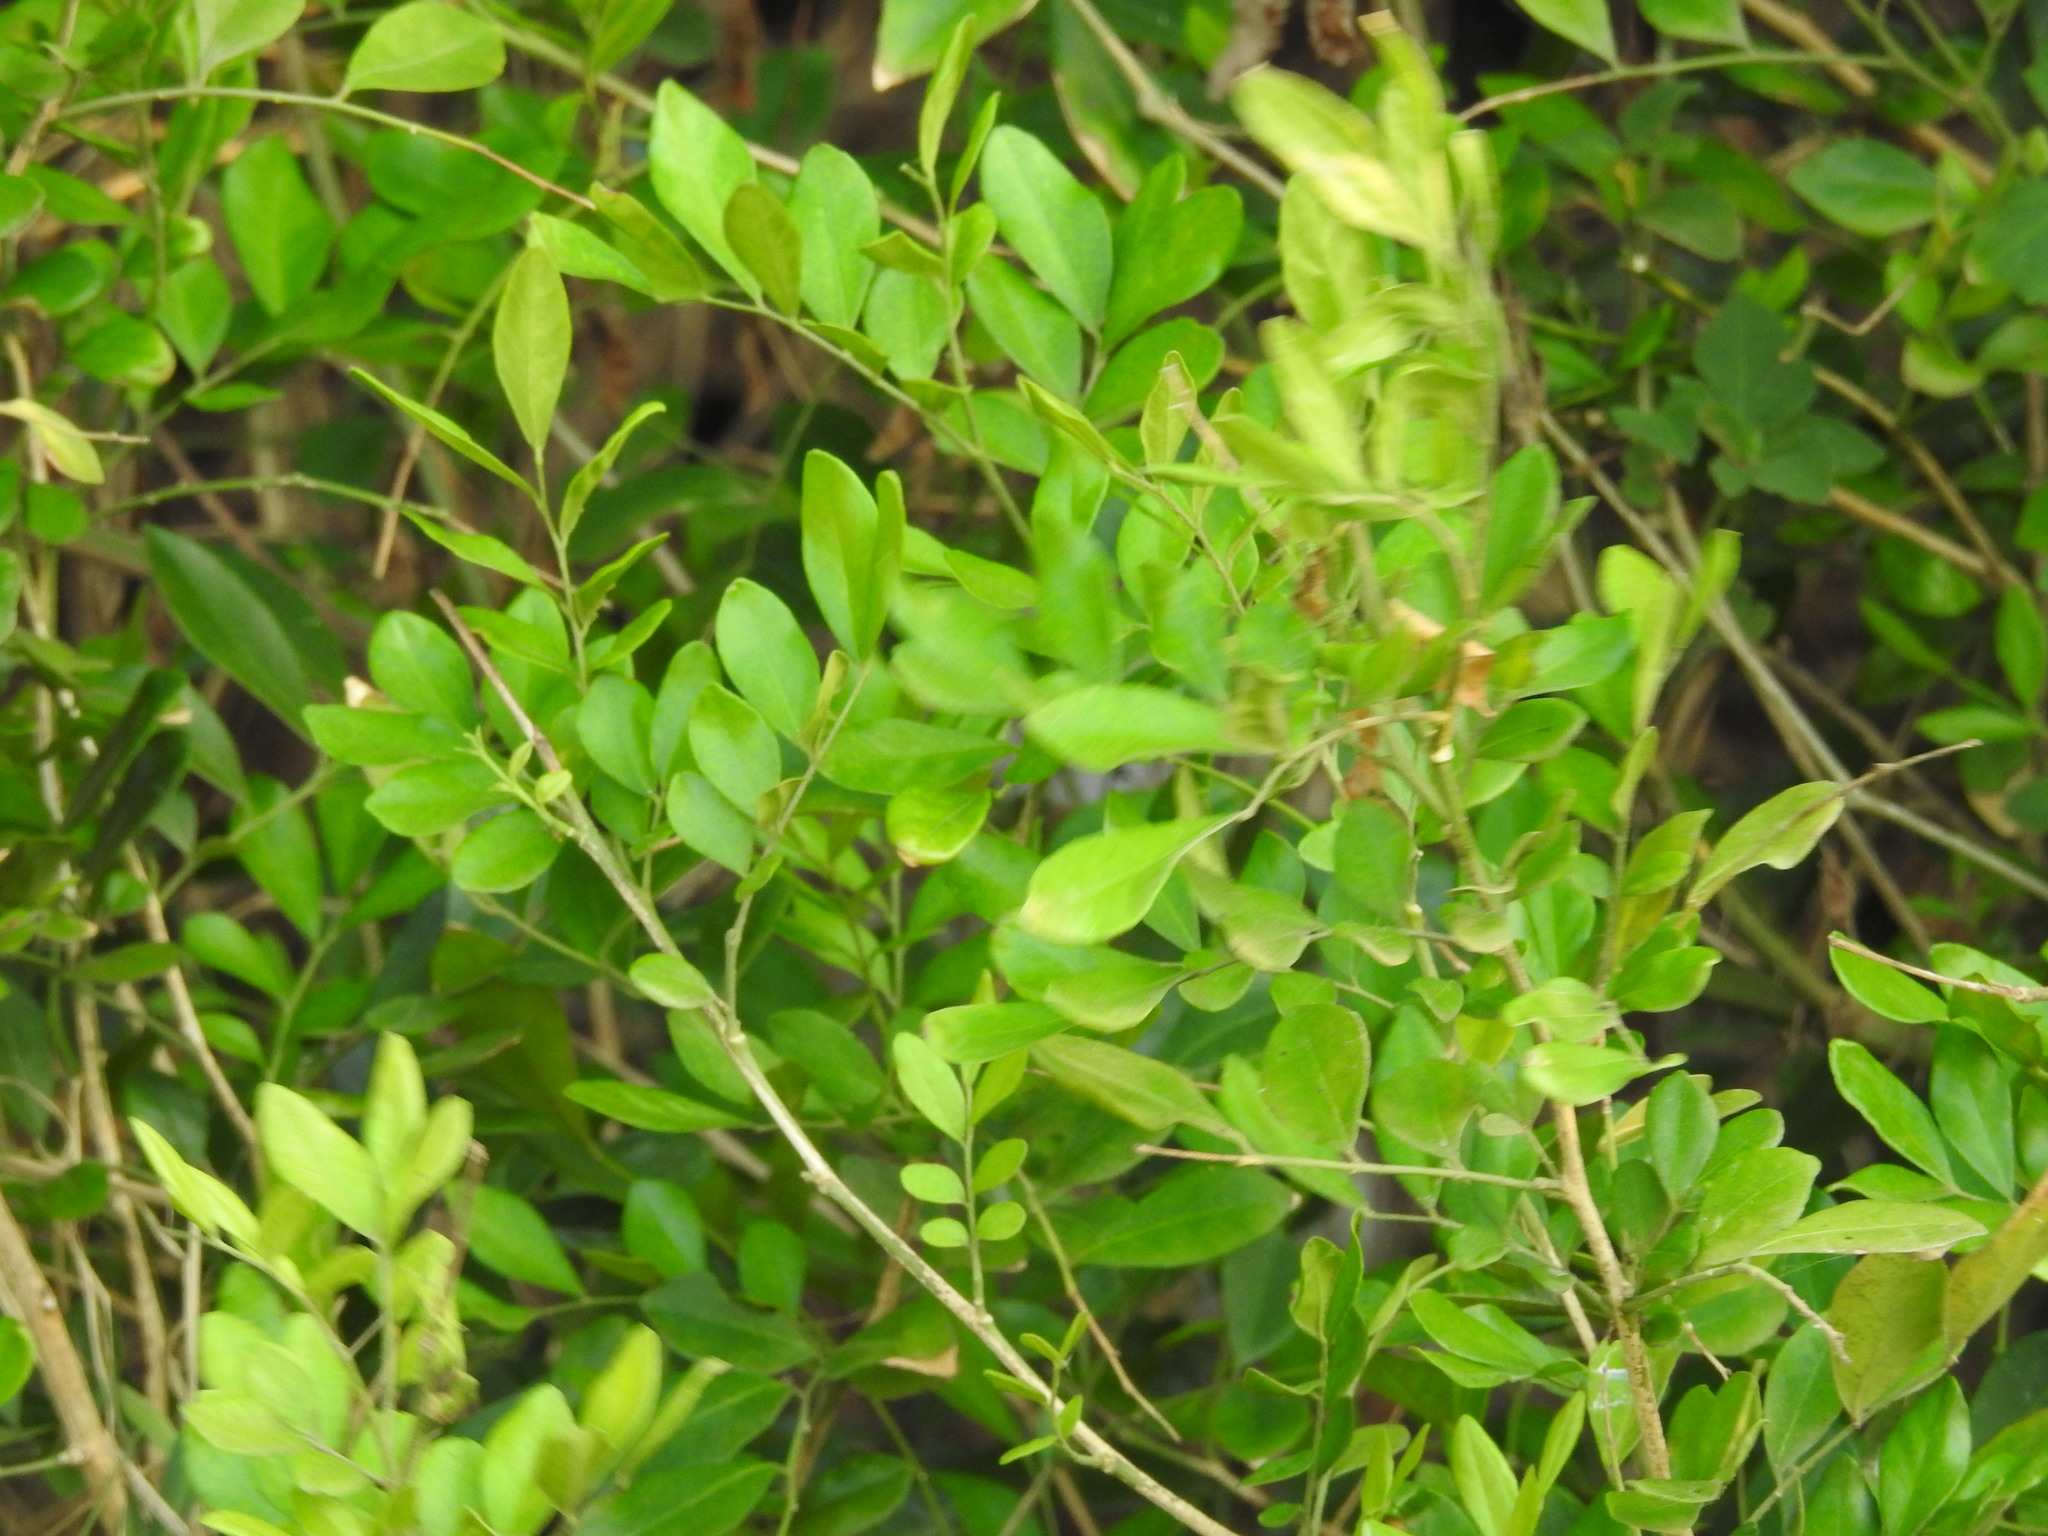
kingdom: Plantae
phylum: Tracheophyta
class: Magnoliopsida
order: Sapindales
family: Rutaceae
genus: Murraya
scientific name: Murraya paniculata
